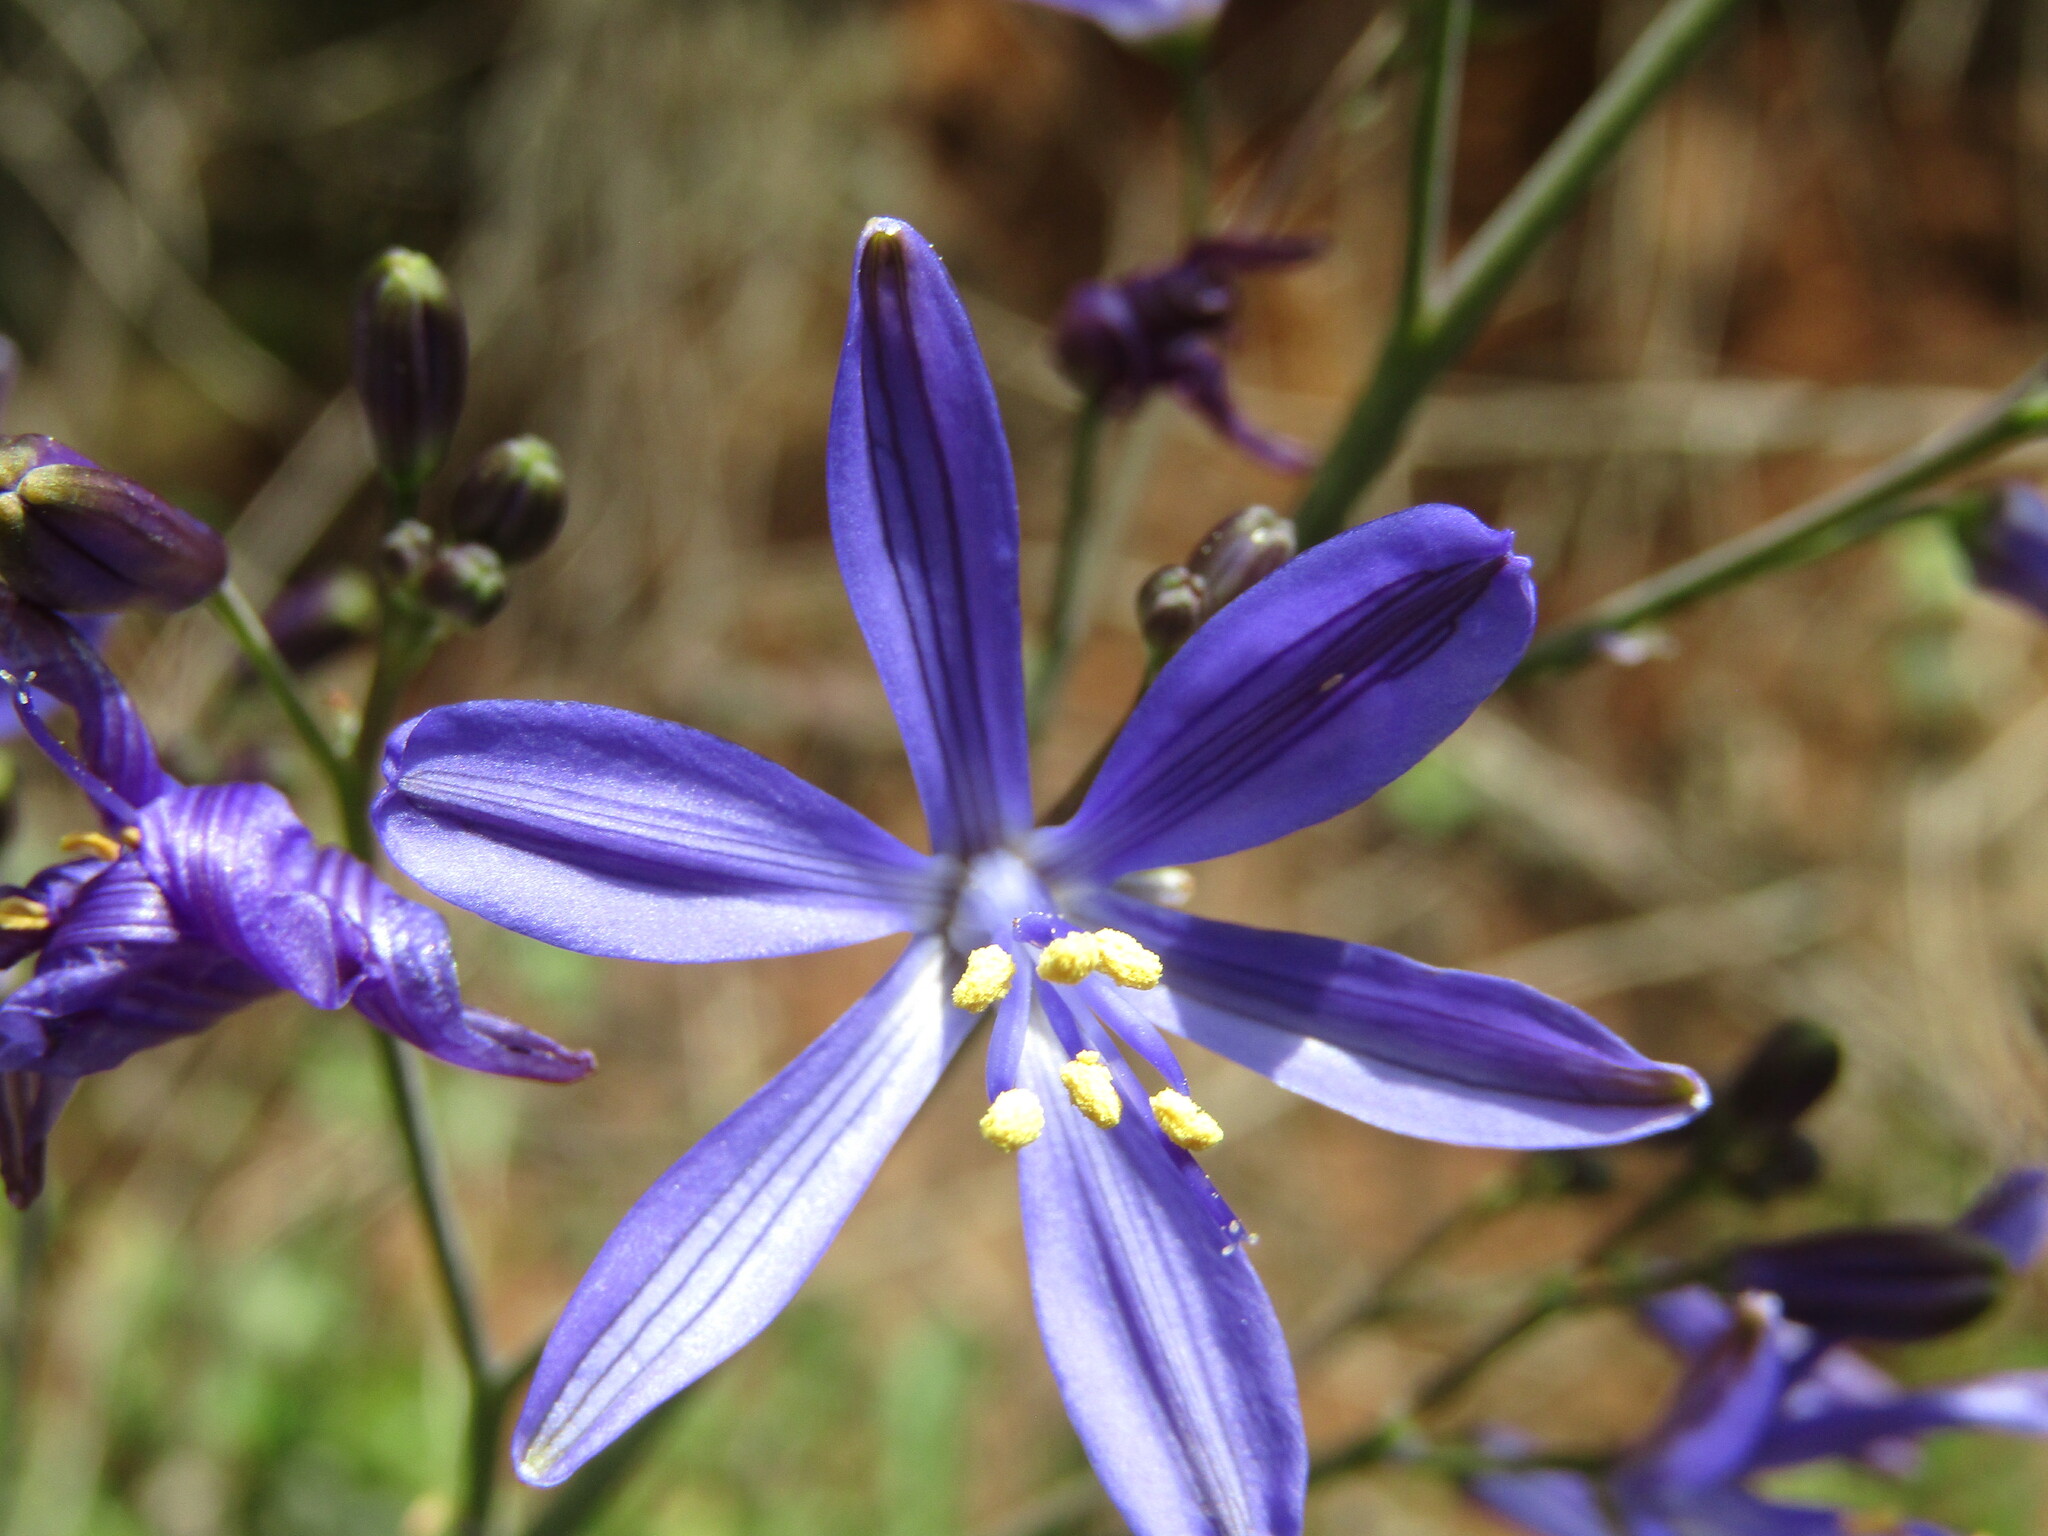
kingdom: Plantae
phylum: Tracheophyta
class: Liliopsida
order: Asparagales
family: Asphodelaceae
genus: Pasithea
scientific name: Pasithea caerulea
